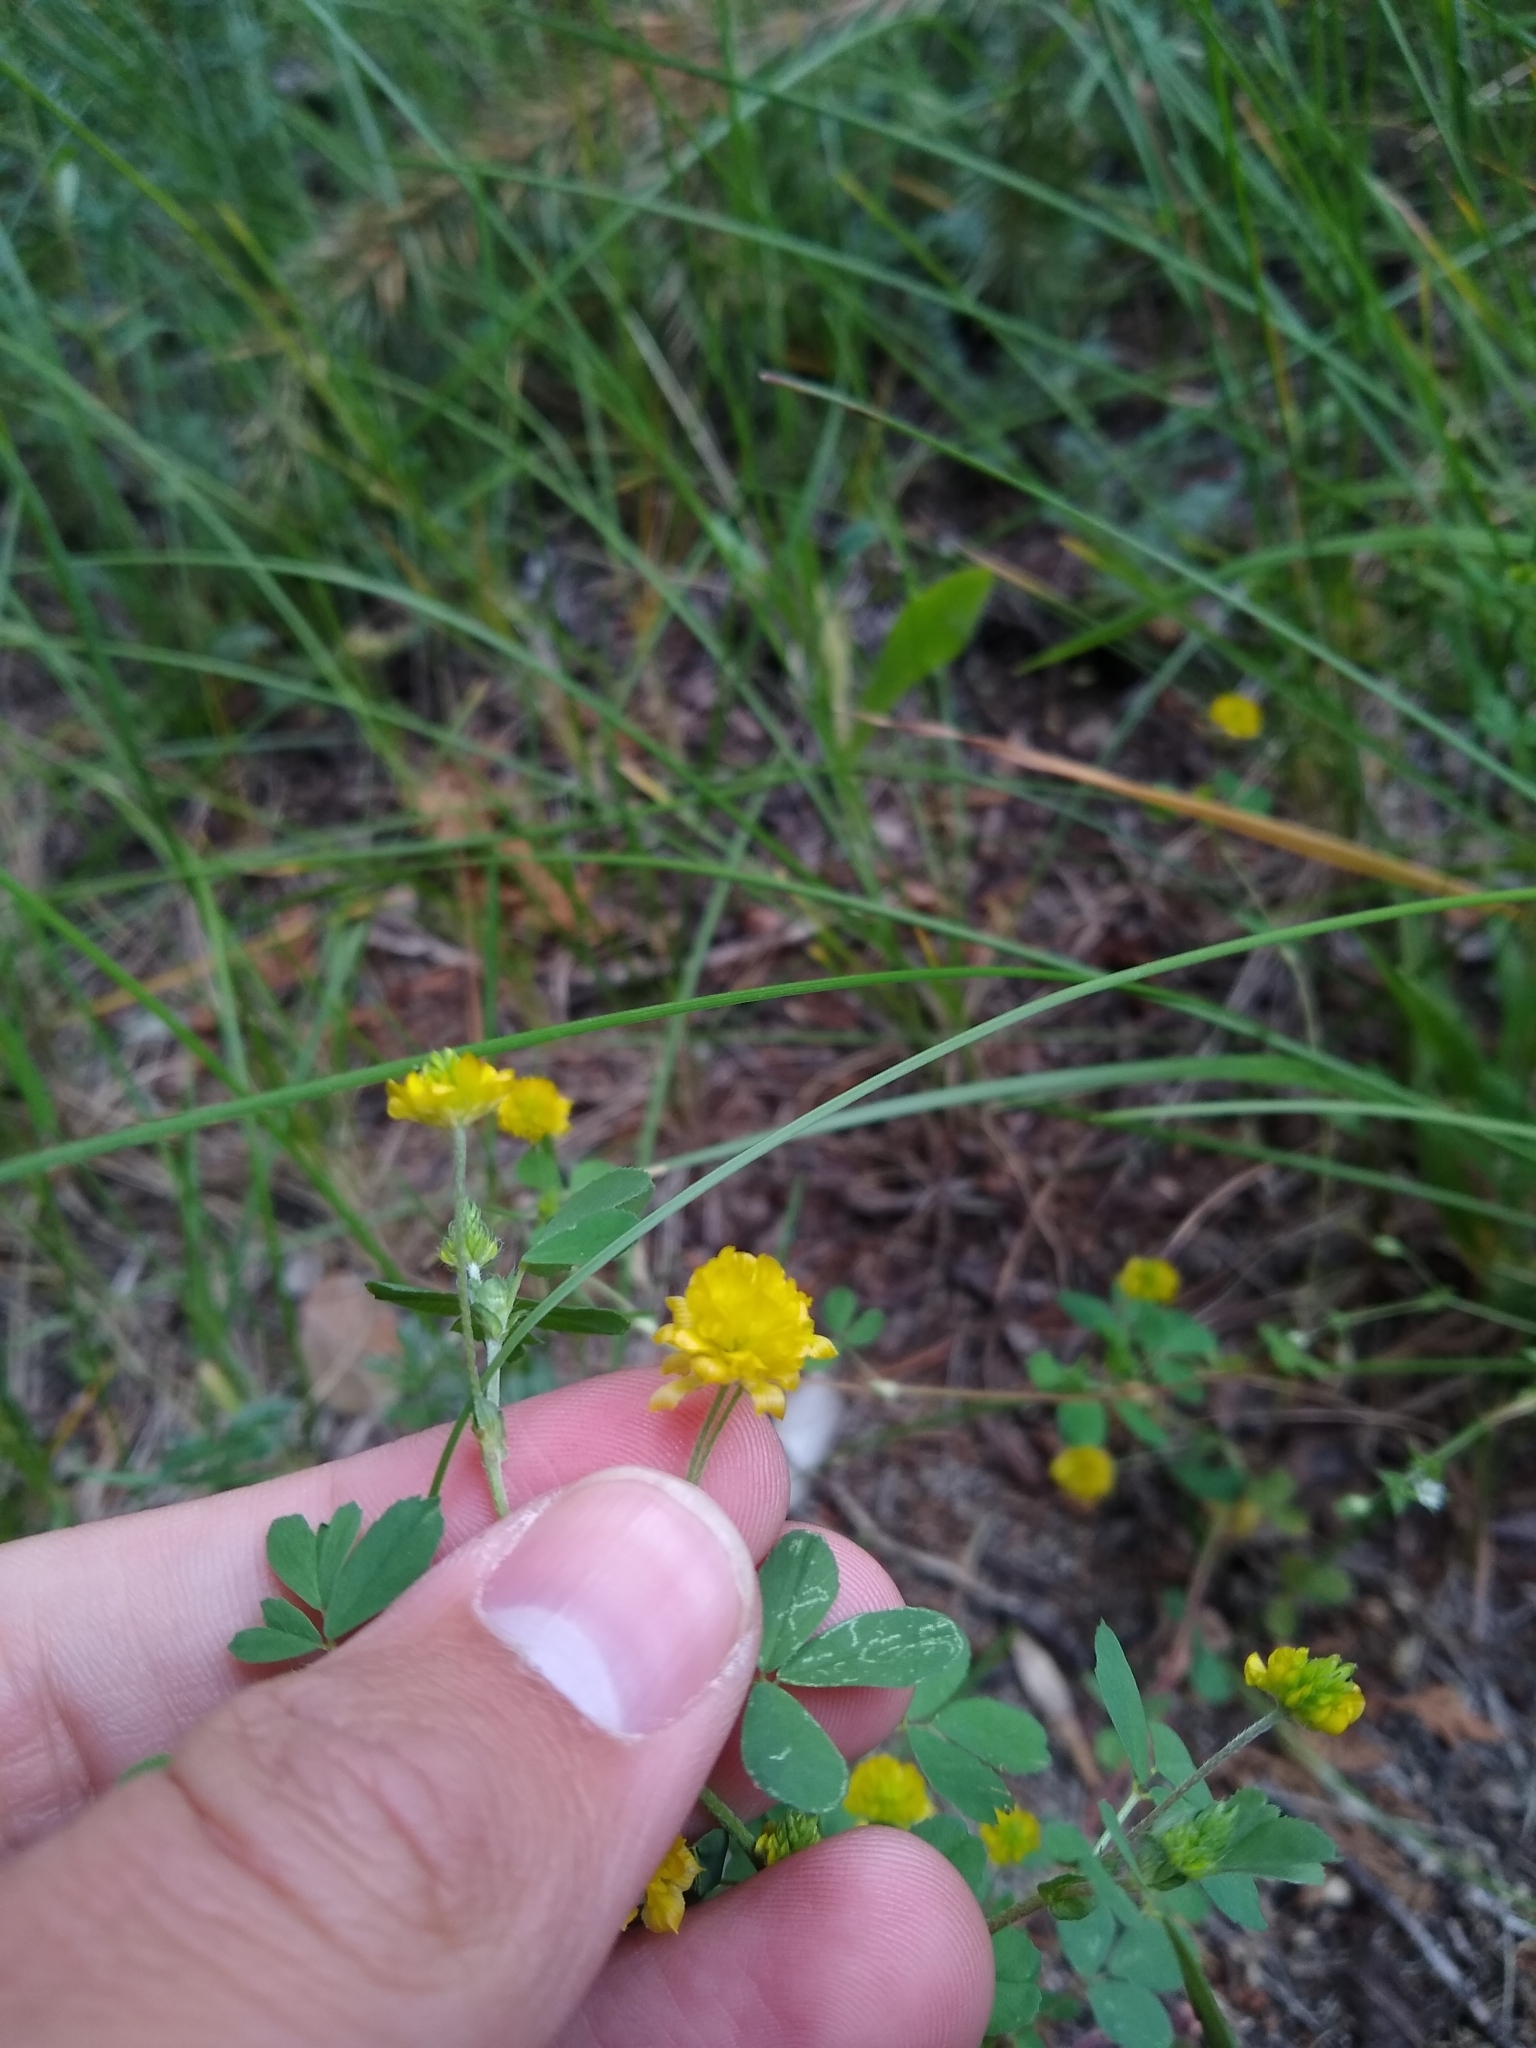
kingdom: Plantae
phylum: Tracheophyta
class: Magnoliopsida
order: Fabales
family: Fabaceae
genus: Trifolium
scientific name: Trifolium dubium
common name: Suckling clover
